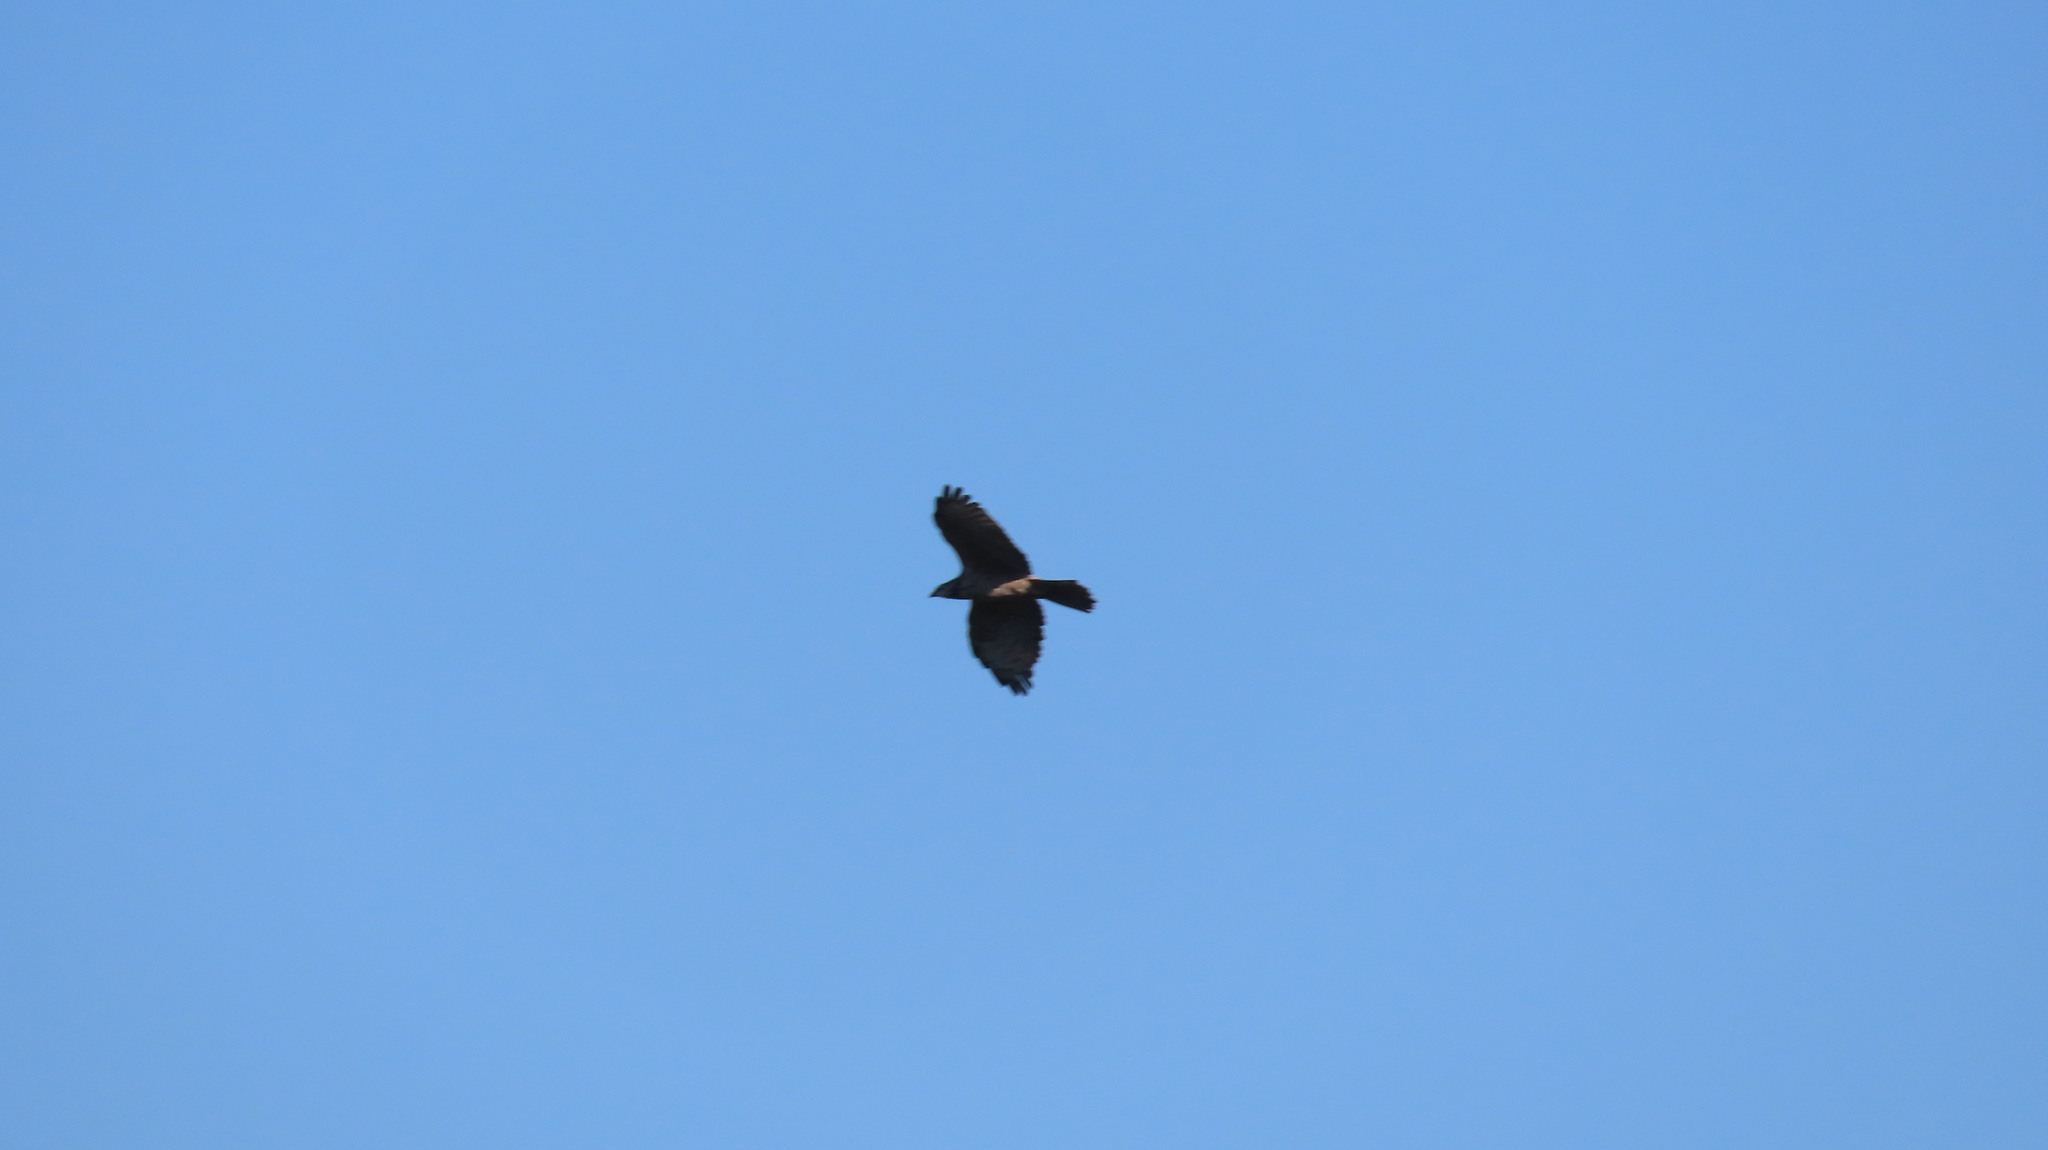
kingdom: Animalia
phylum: Chordata
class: Aves
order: Accipitriformes
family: Accipitridae
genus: Pernis
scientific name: Pernis ptilorhynchus
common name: Crested honey buzzard
